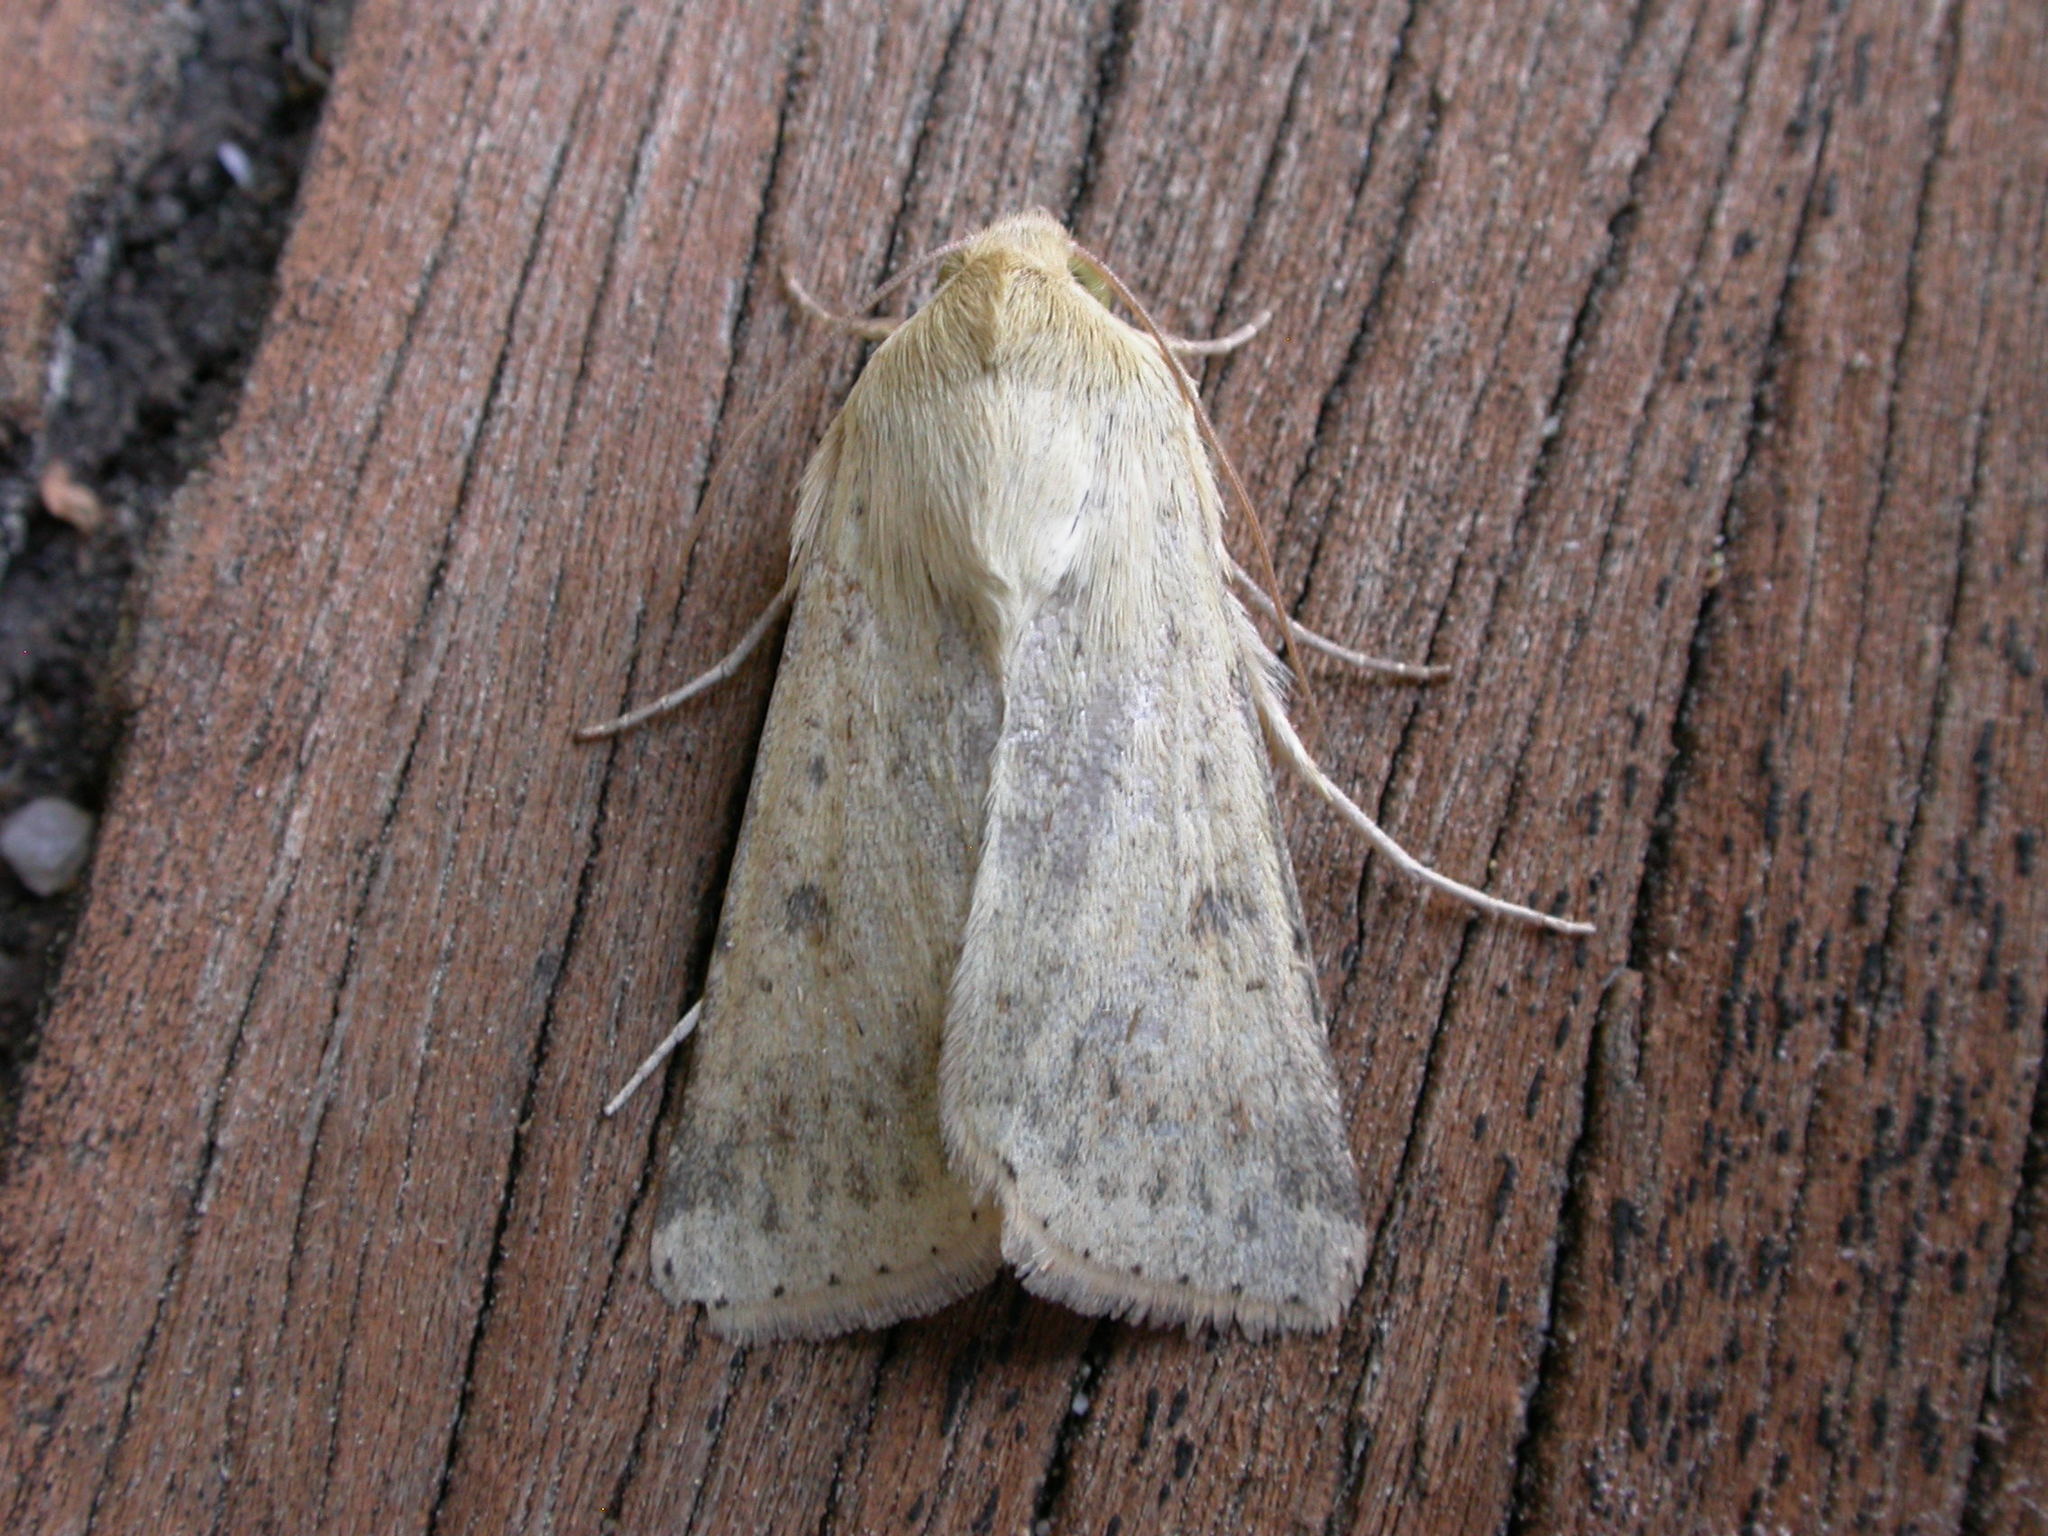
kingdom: Animalia
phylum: Arthropoda
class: Insecta
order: Lepidoptera
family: Noctuidae
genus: Helicoverpa
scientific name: Helicoverpa punctigera
